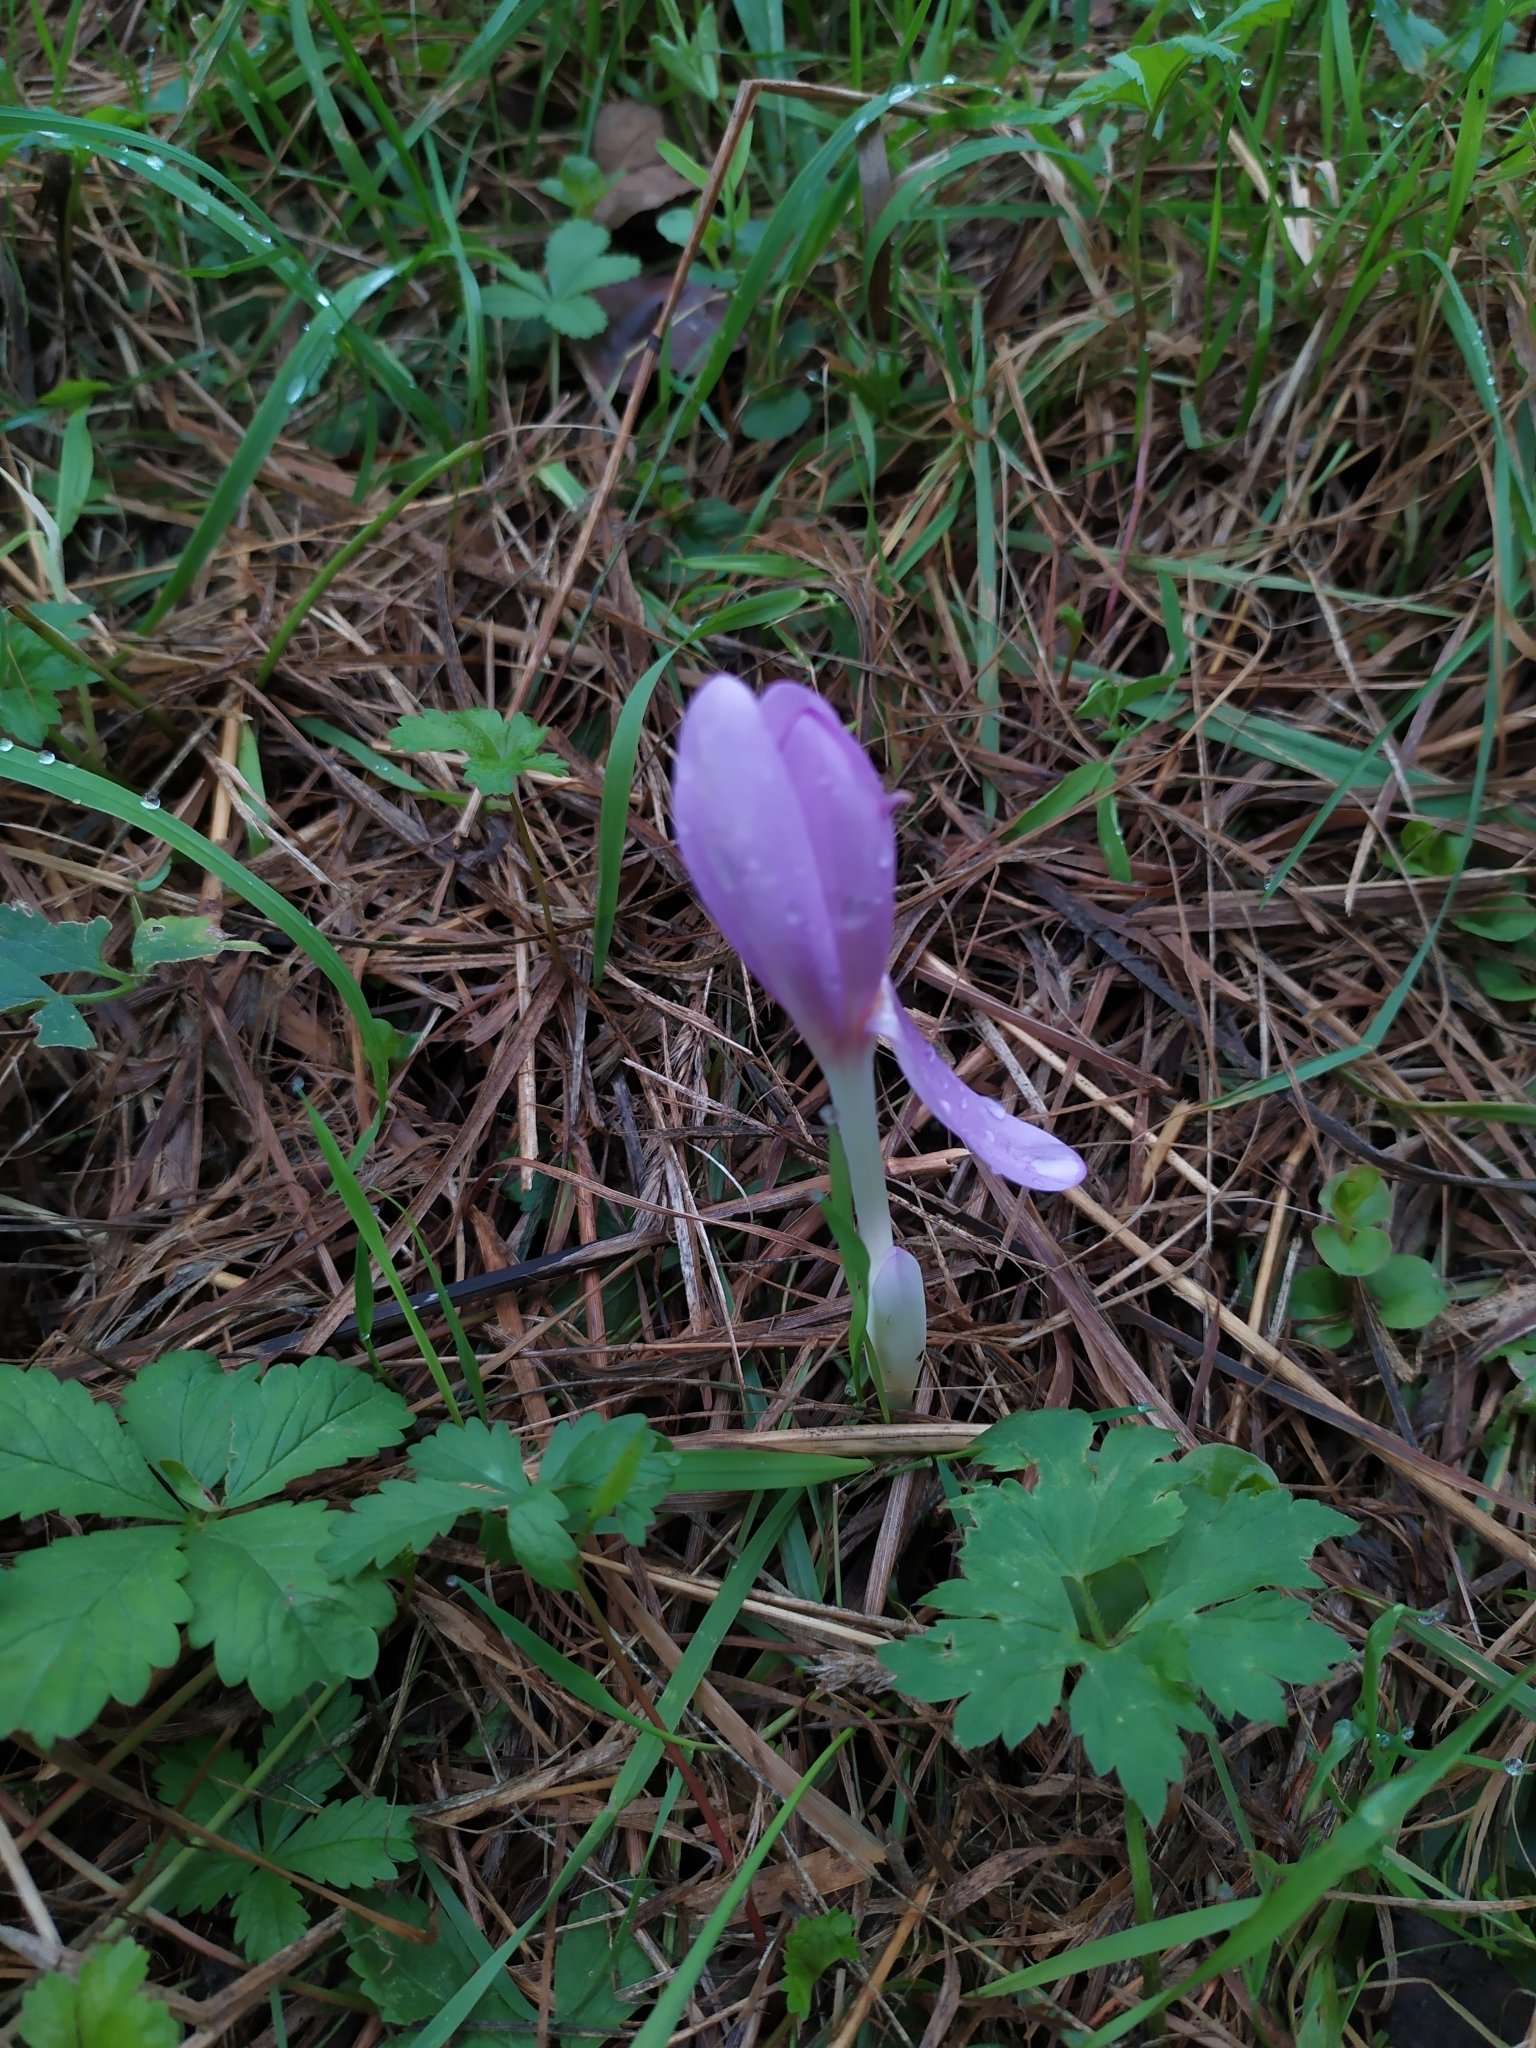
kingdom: Plantae
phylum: Tracheophyta
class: Liliopsida
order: Liliales
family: Colchicaceae
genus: Colchicum
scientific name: Colchicum autumnale
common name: Autumn crocus
